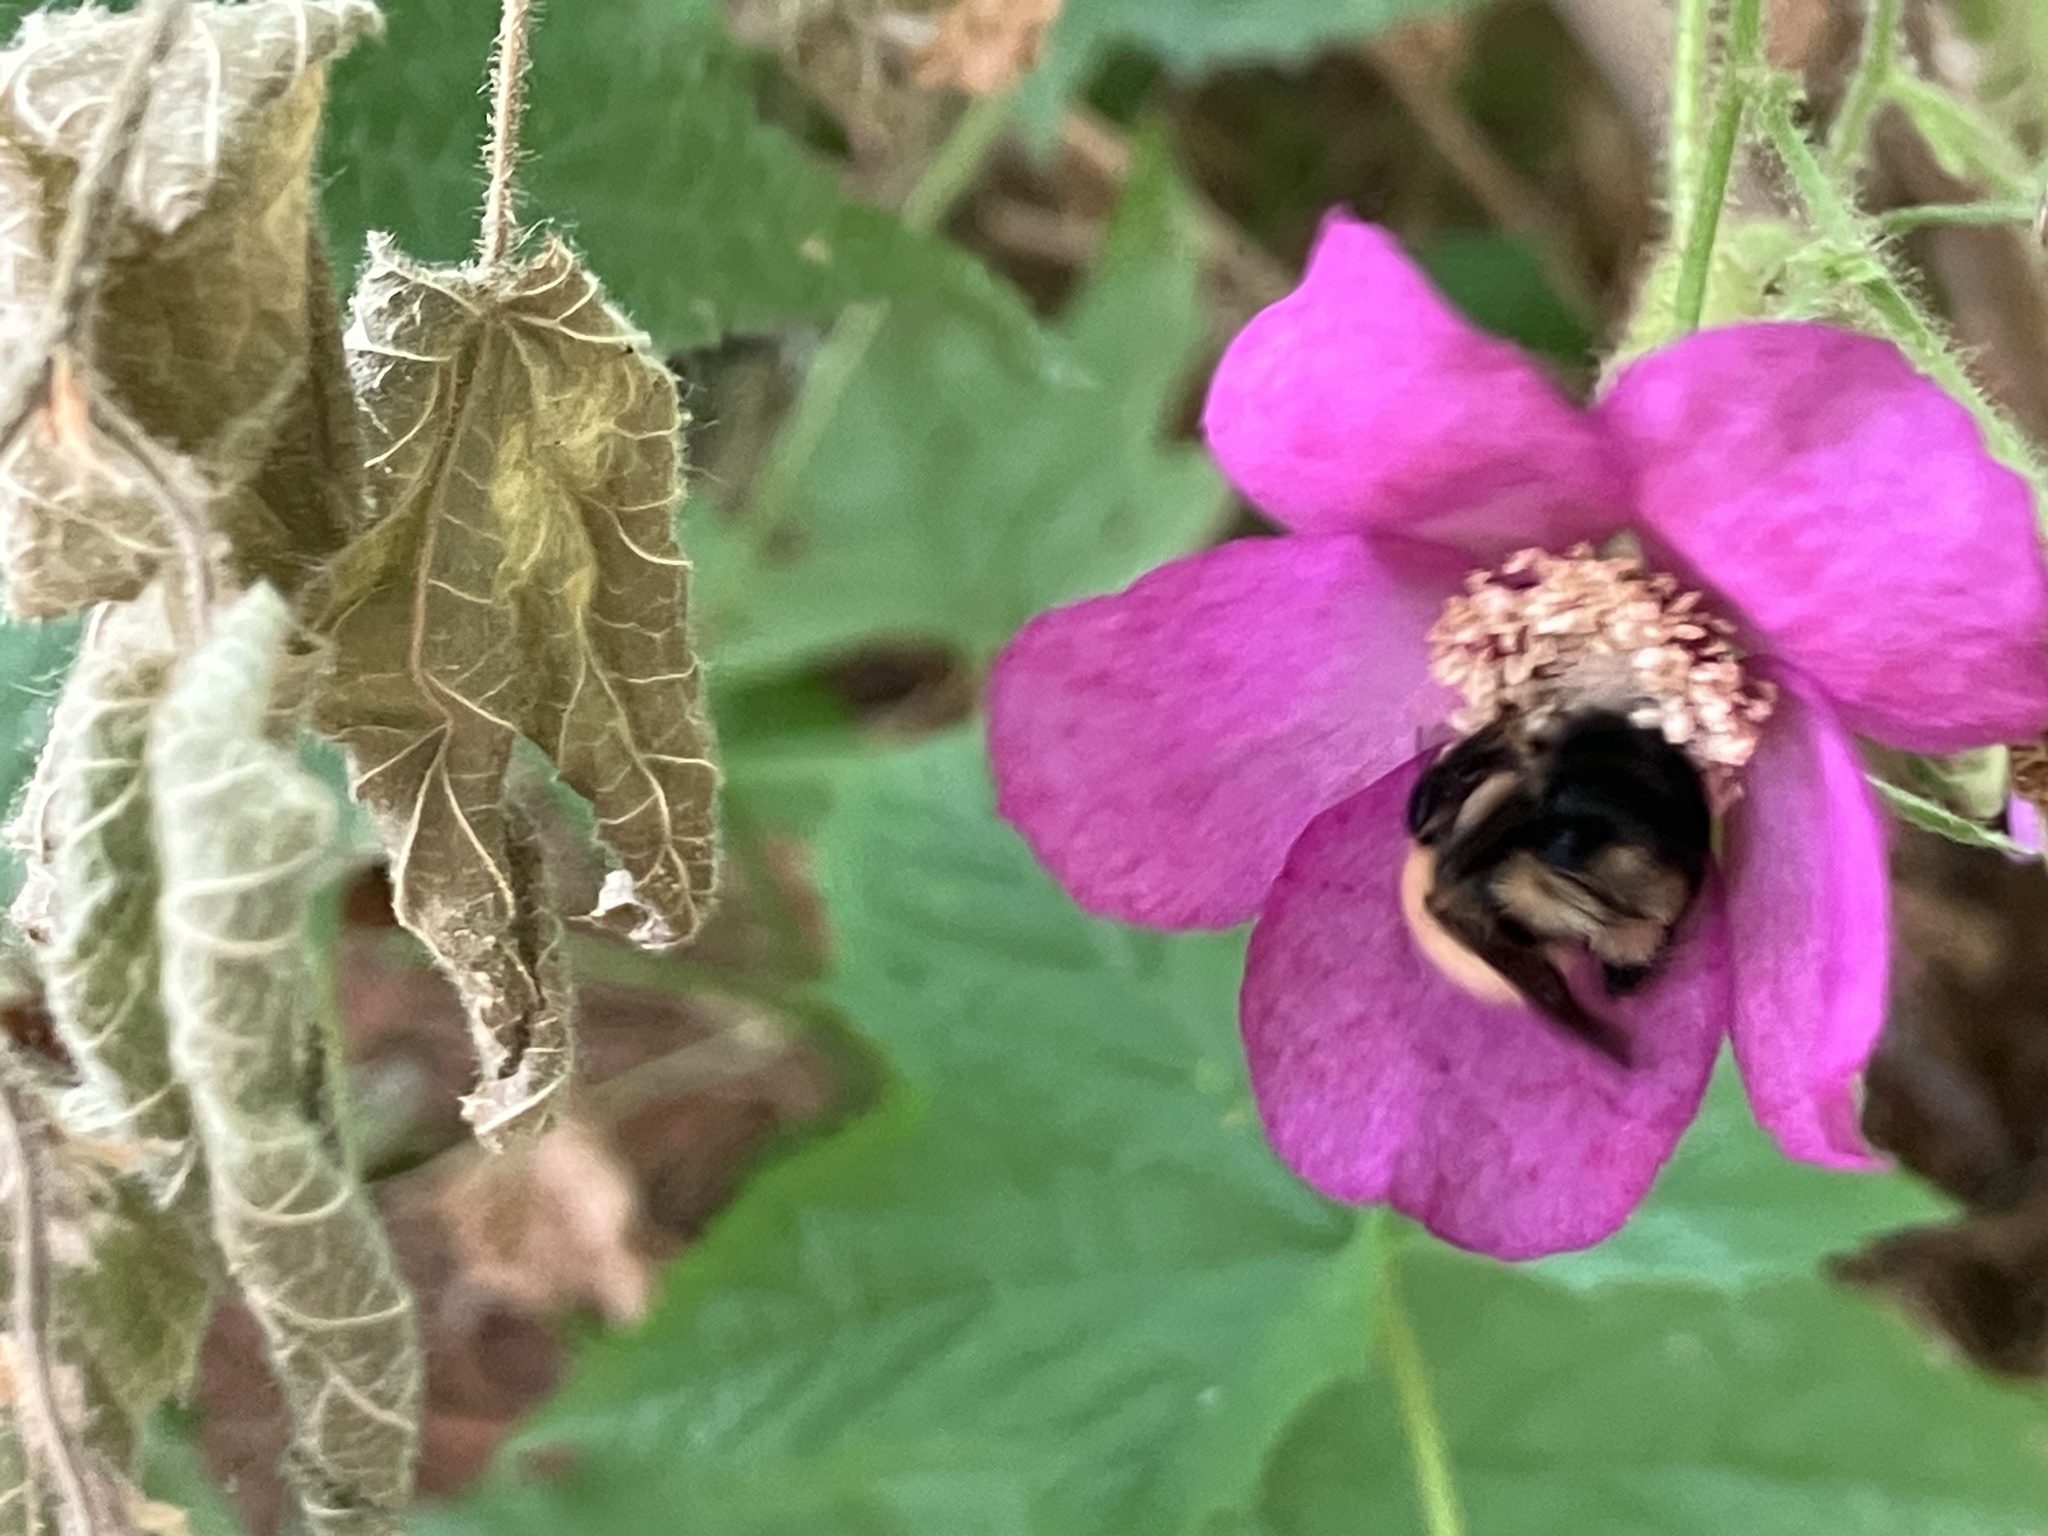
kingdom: Animalia
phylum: Arthropoda
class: Insecta
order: Hymenoptera
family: Apidae
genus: Bombus
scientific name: Bombus bimaculatus
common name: Two-spotted bumble bee
